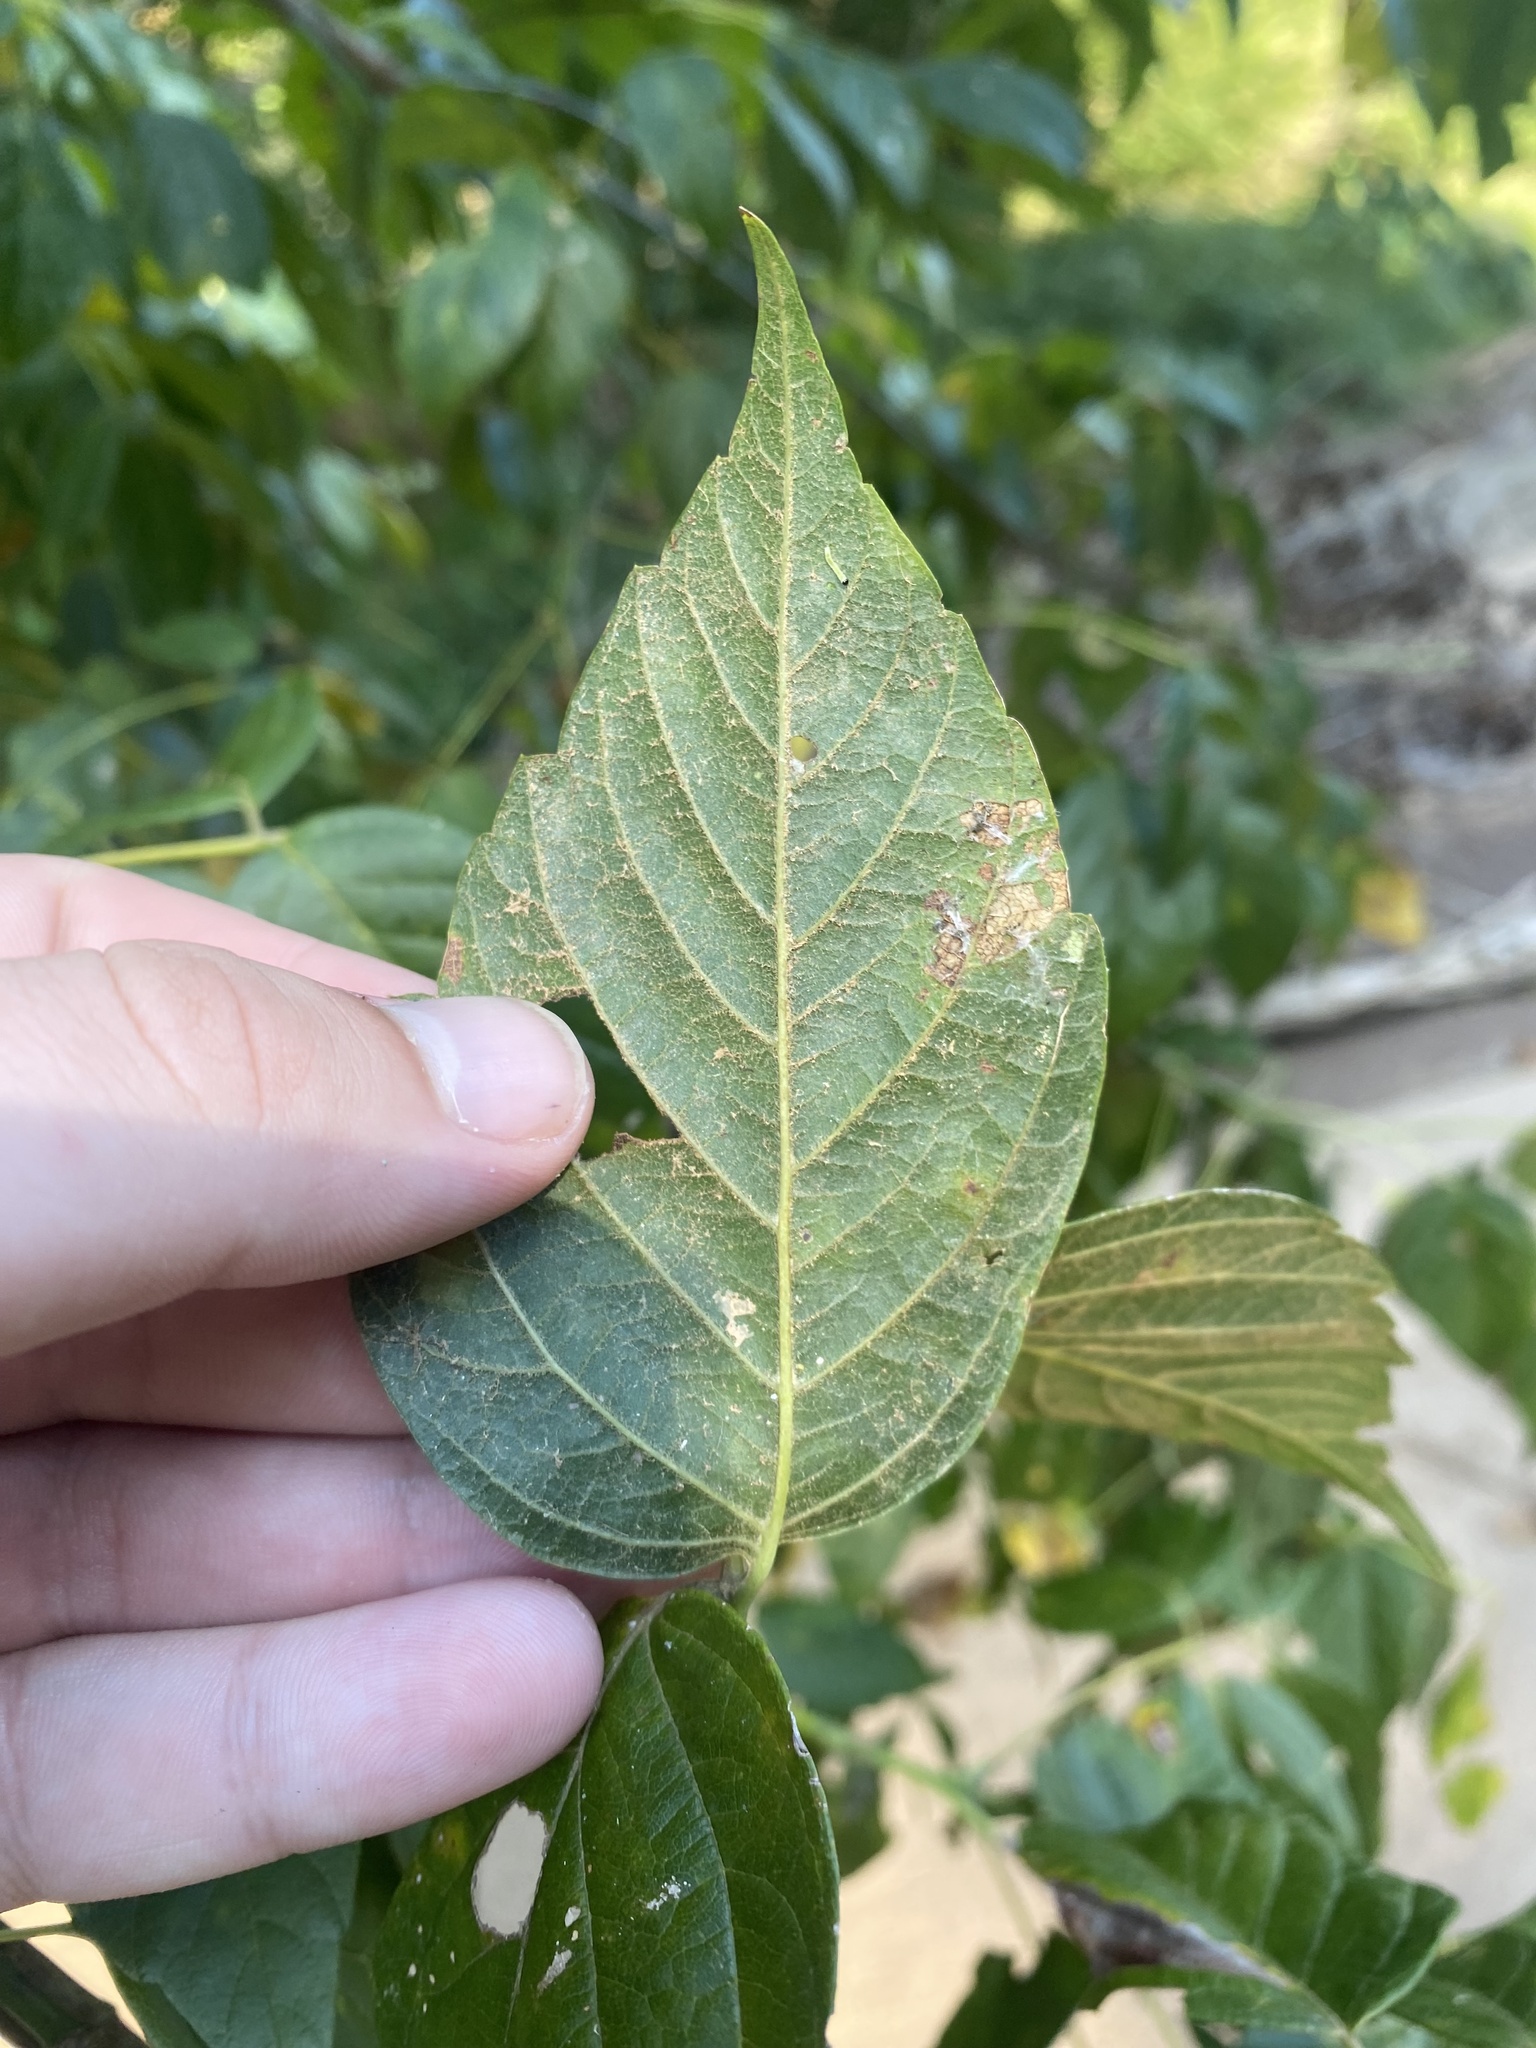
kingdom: Plantae
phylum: Tracheophyta
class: Magnoliopsida
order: Sapindales
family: Sapindaceae
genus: Acer
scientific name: Acer negundo
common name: Ashleaf maple
